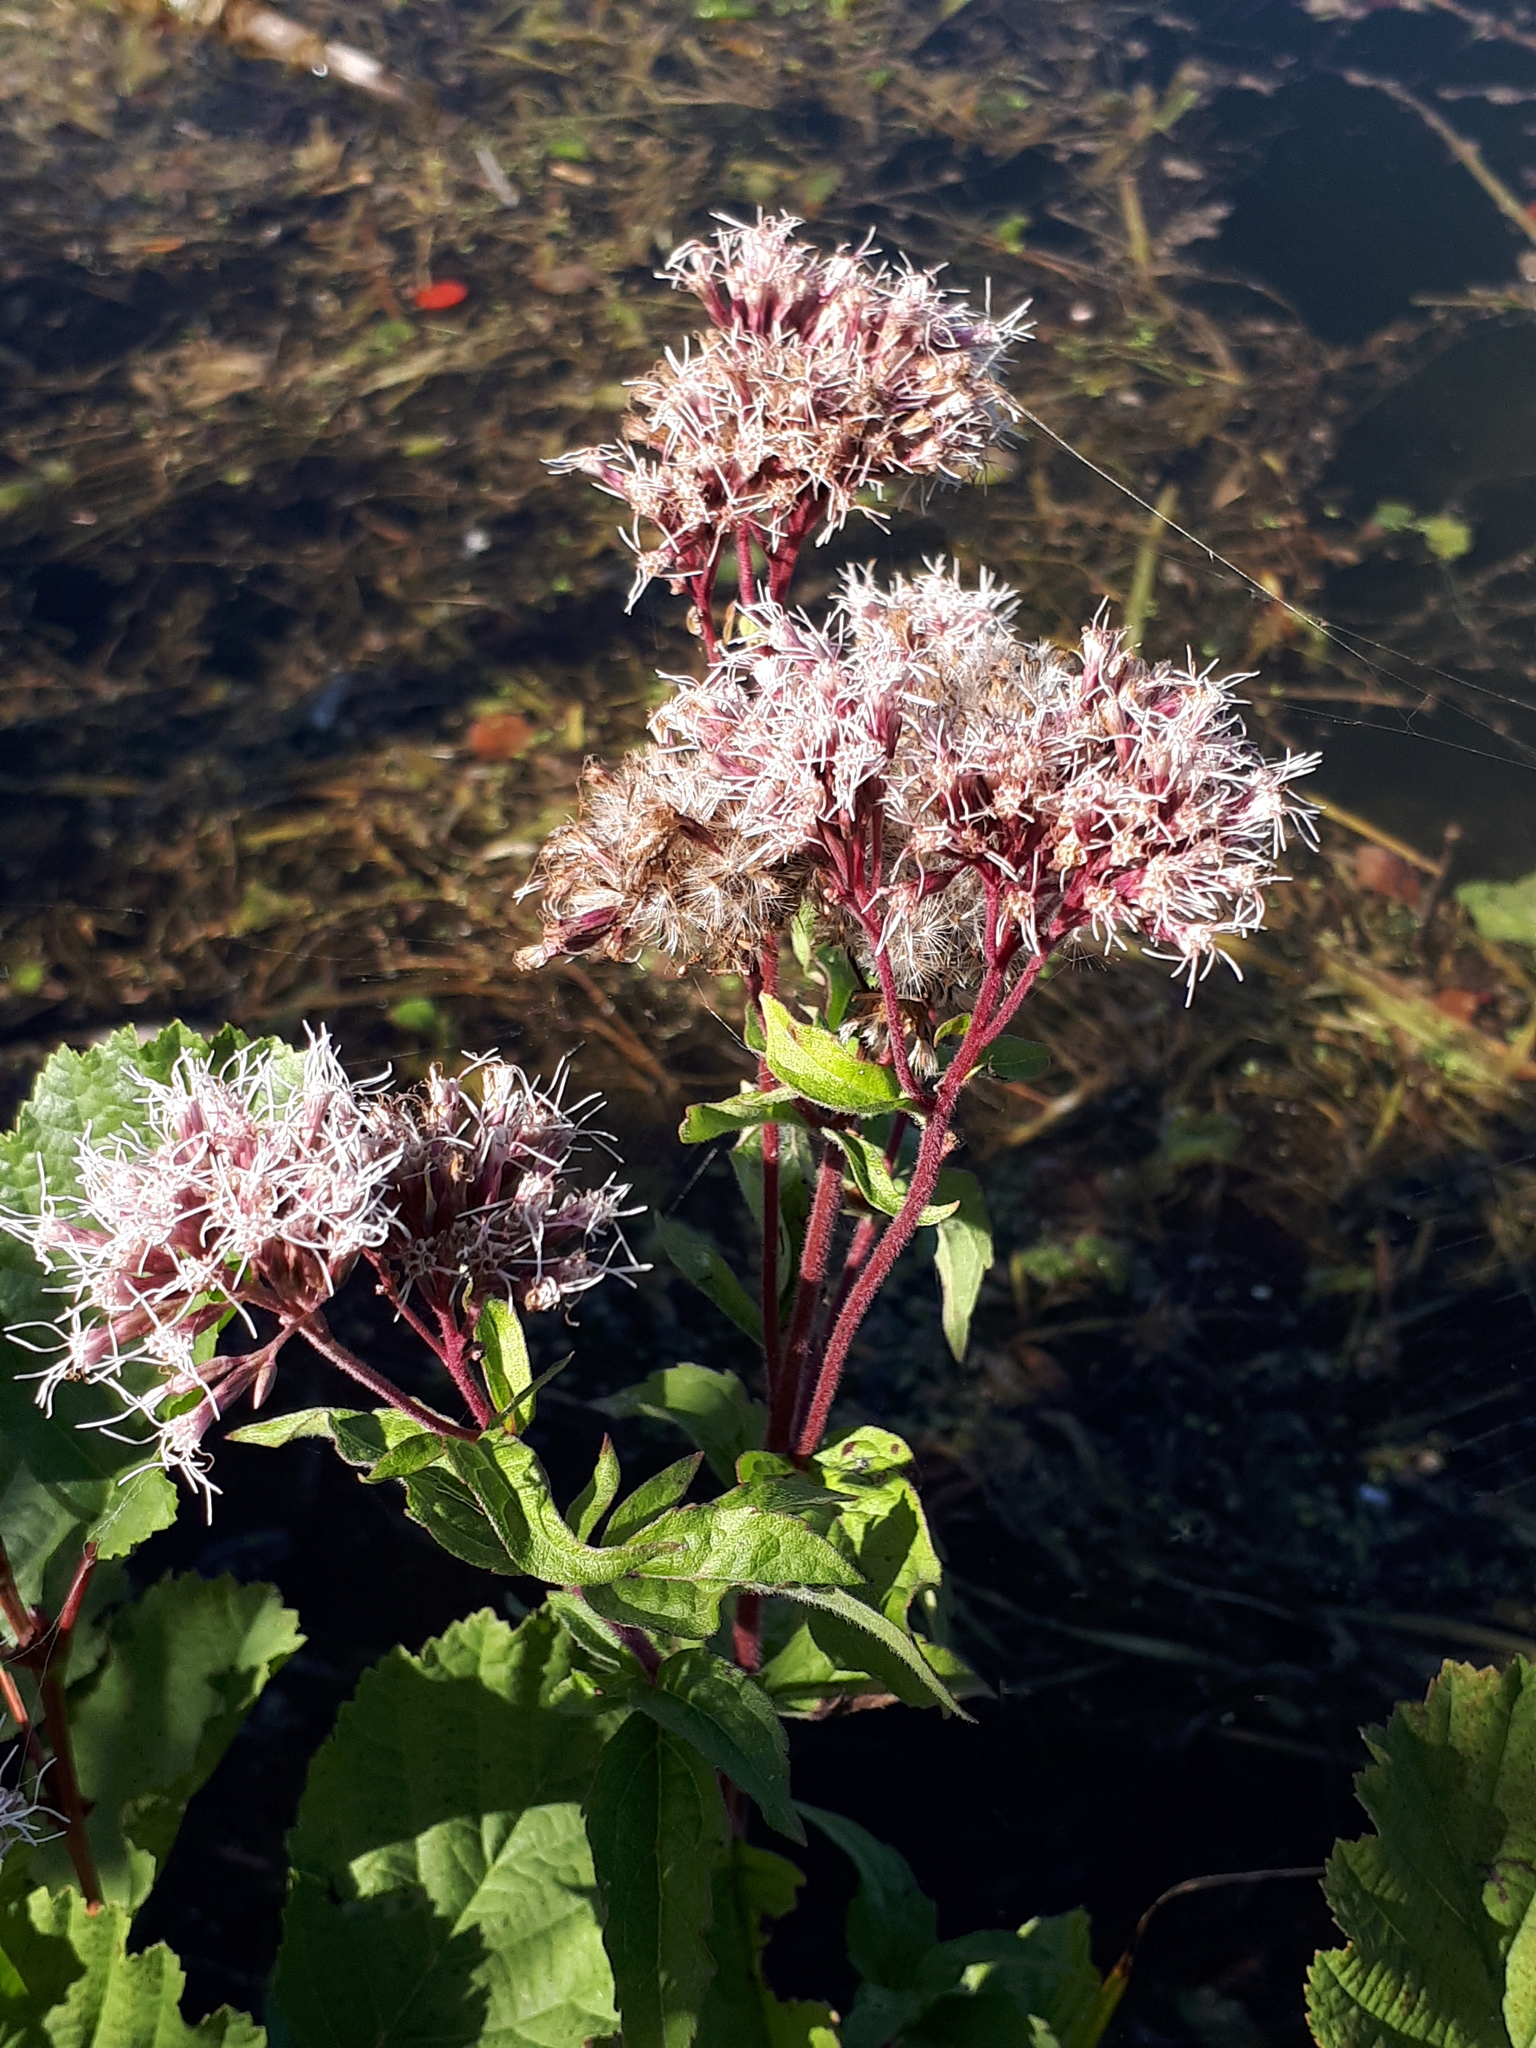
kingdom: Plantae
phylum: Tracheophyta
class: Magnoliopsida
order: Asterales
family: Asteraceae
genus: Eupatorium
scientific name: Eupatorium cannabinum
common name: Hemp-agrimony
